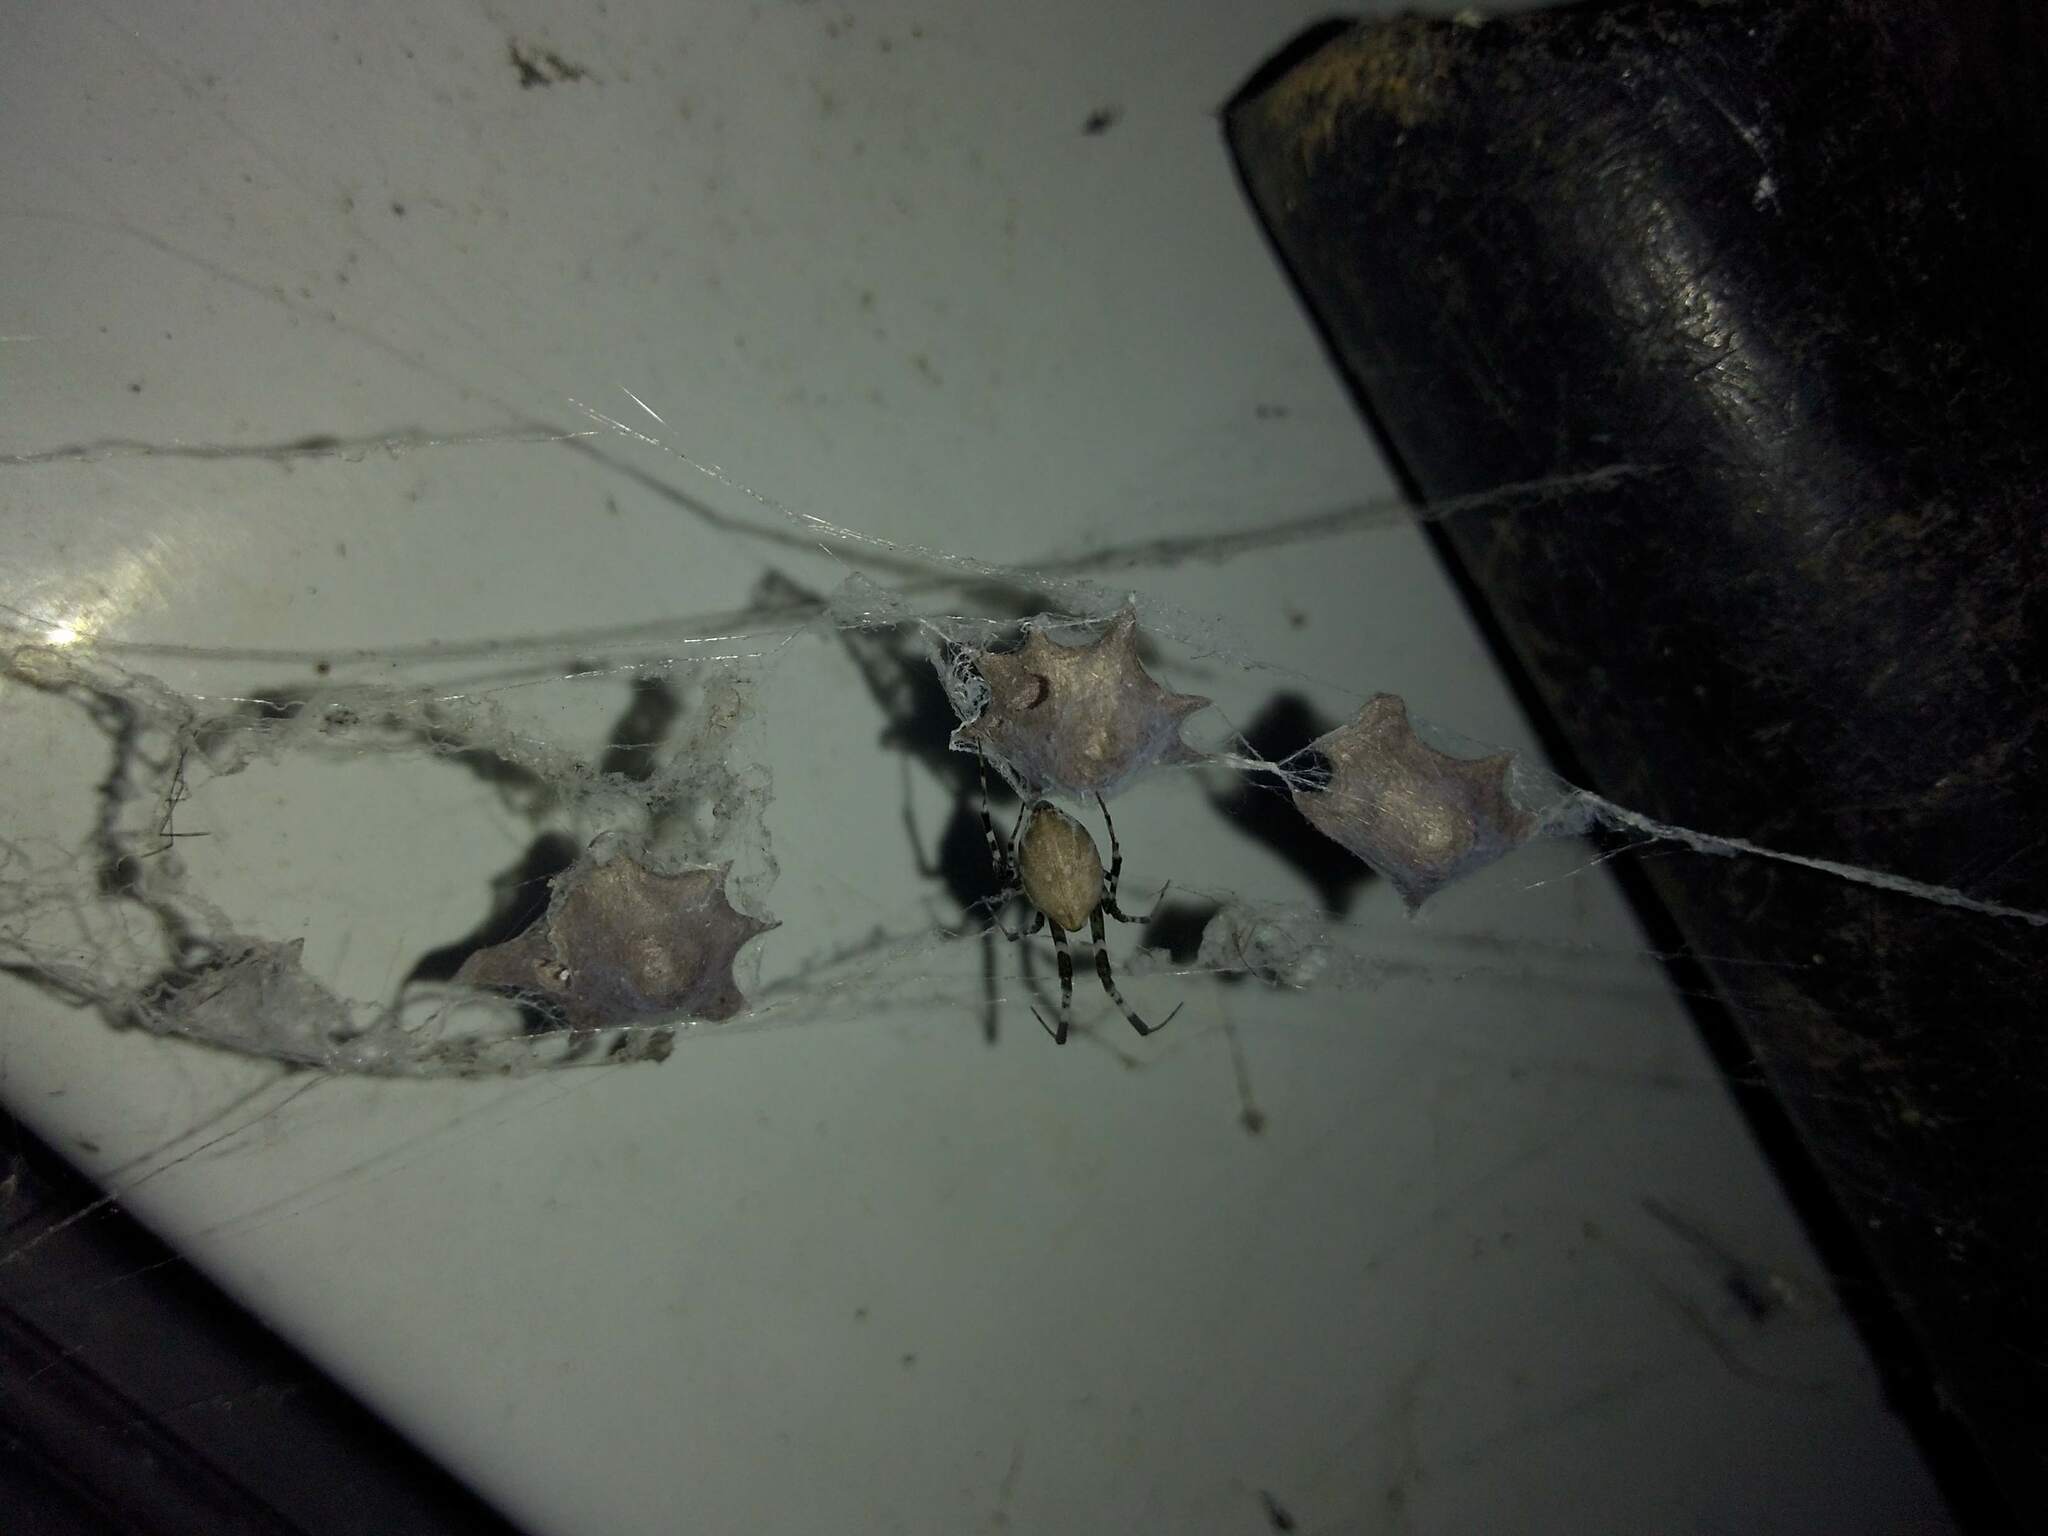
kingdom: Animalia
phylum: Arthropoda
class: Arachnida
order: Araneae
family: Uloboridae
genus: Zosis
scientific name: Zosis geniculata
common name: Hackled orb weavers
